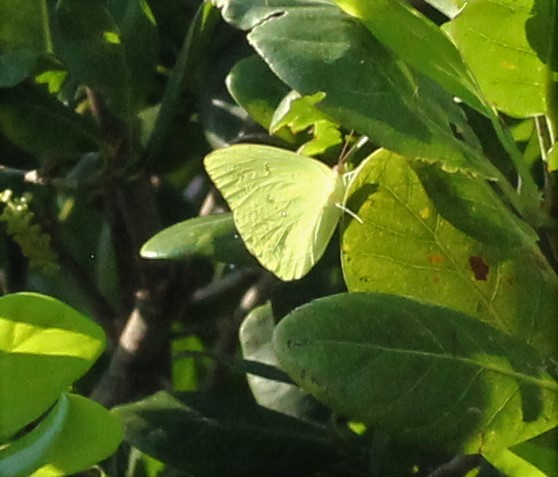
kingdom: Animalia
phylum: Arthropoda
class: Insecta
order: Lepidoptera
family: Pieridae
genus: Phoebis
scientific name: Phoebis sennae
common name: Cloudless sulphur
